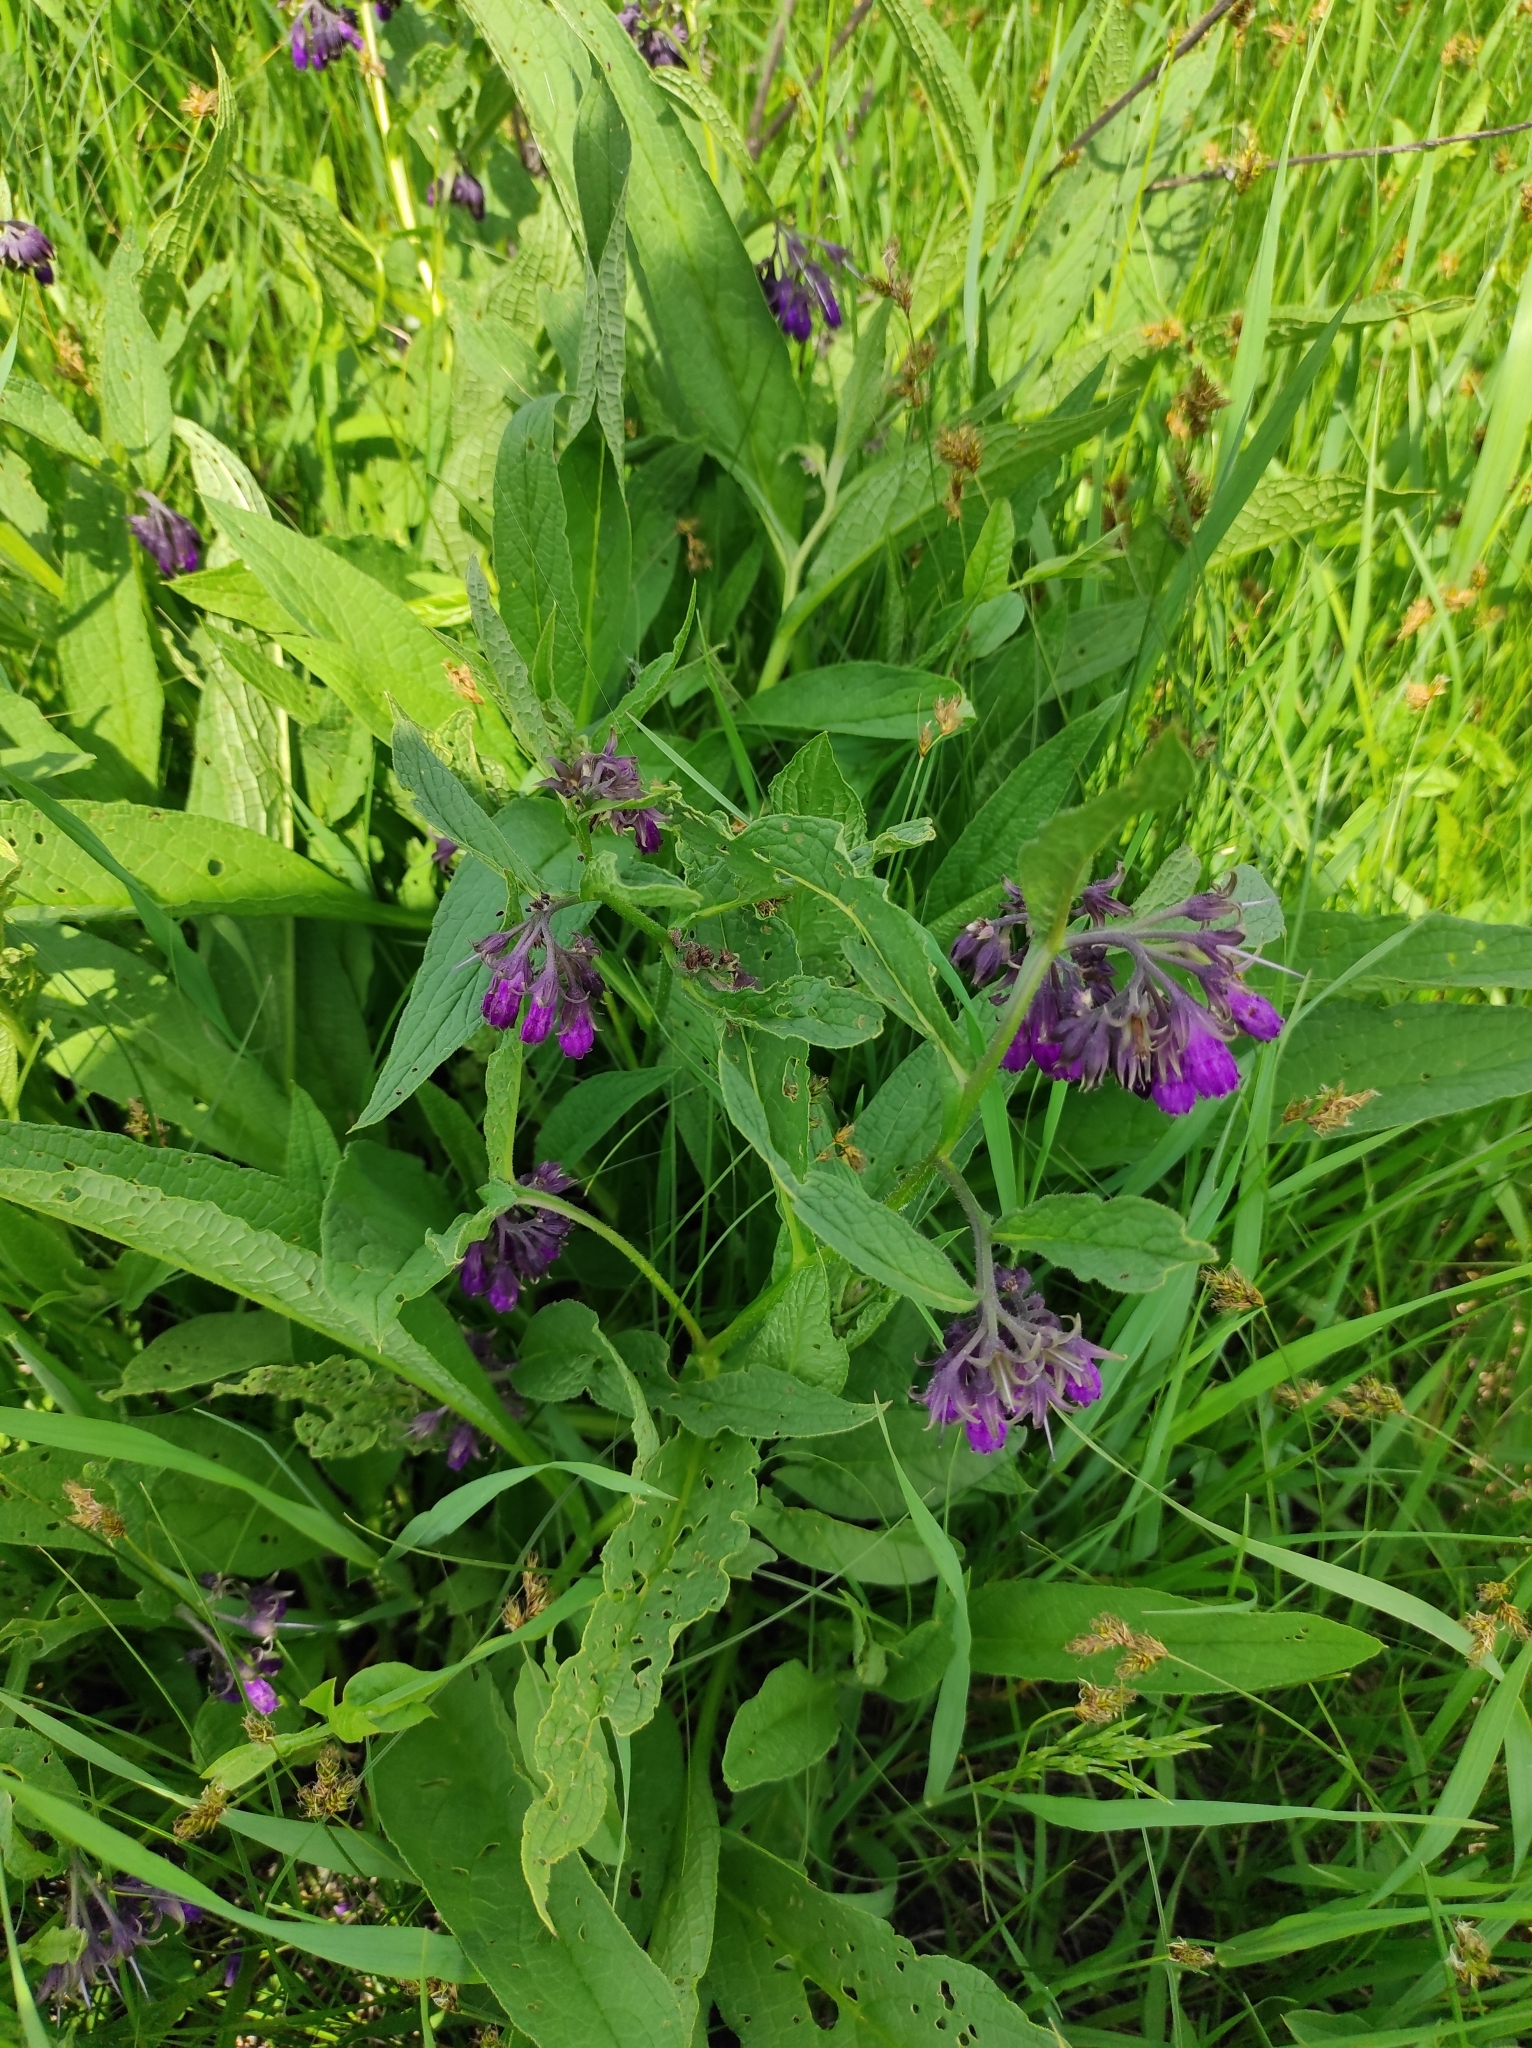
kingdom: Plantae
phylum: Tracheophyta
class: Magnoliopsida
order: Boraginales
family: Boraginaceae
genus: Symphytum
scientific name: Symphytum officinale
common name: Common comfrey
